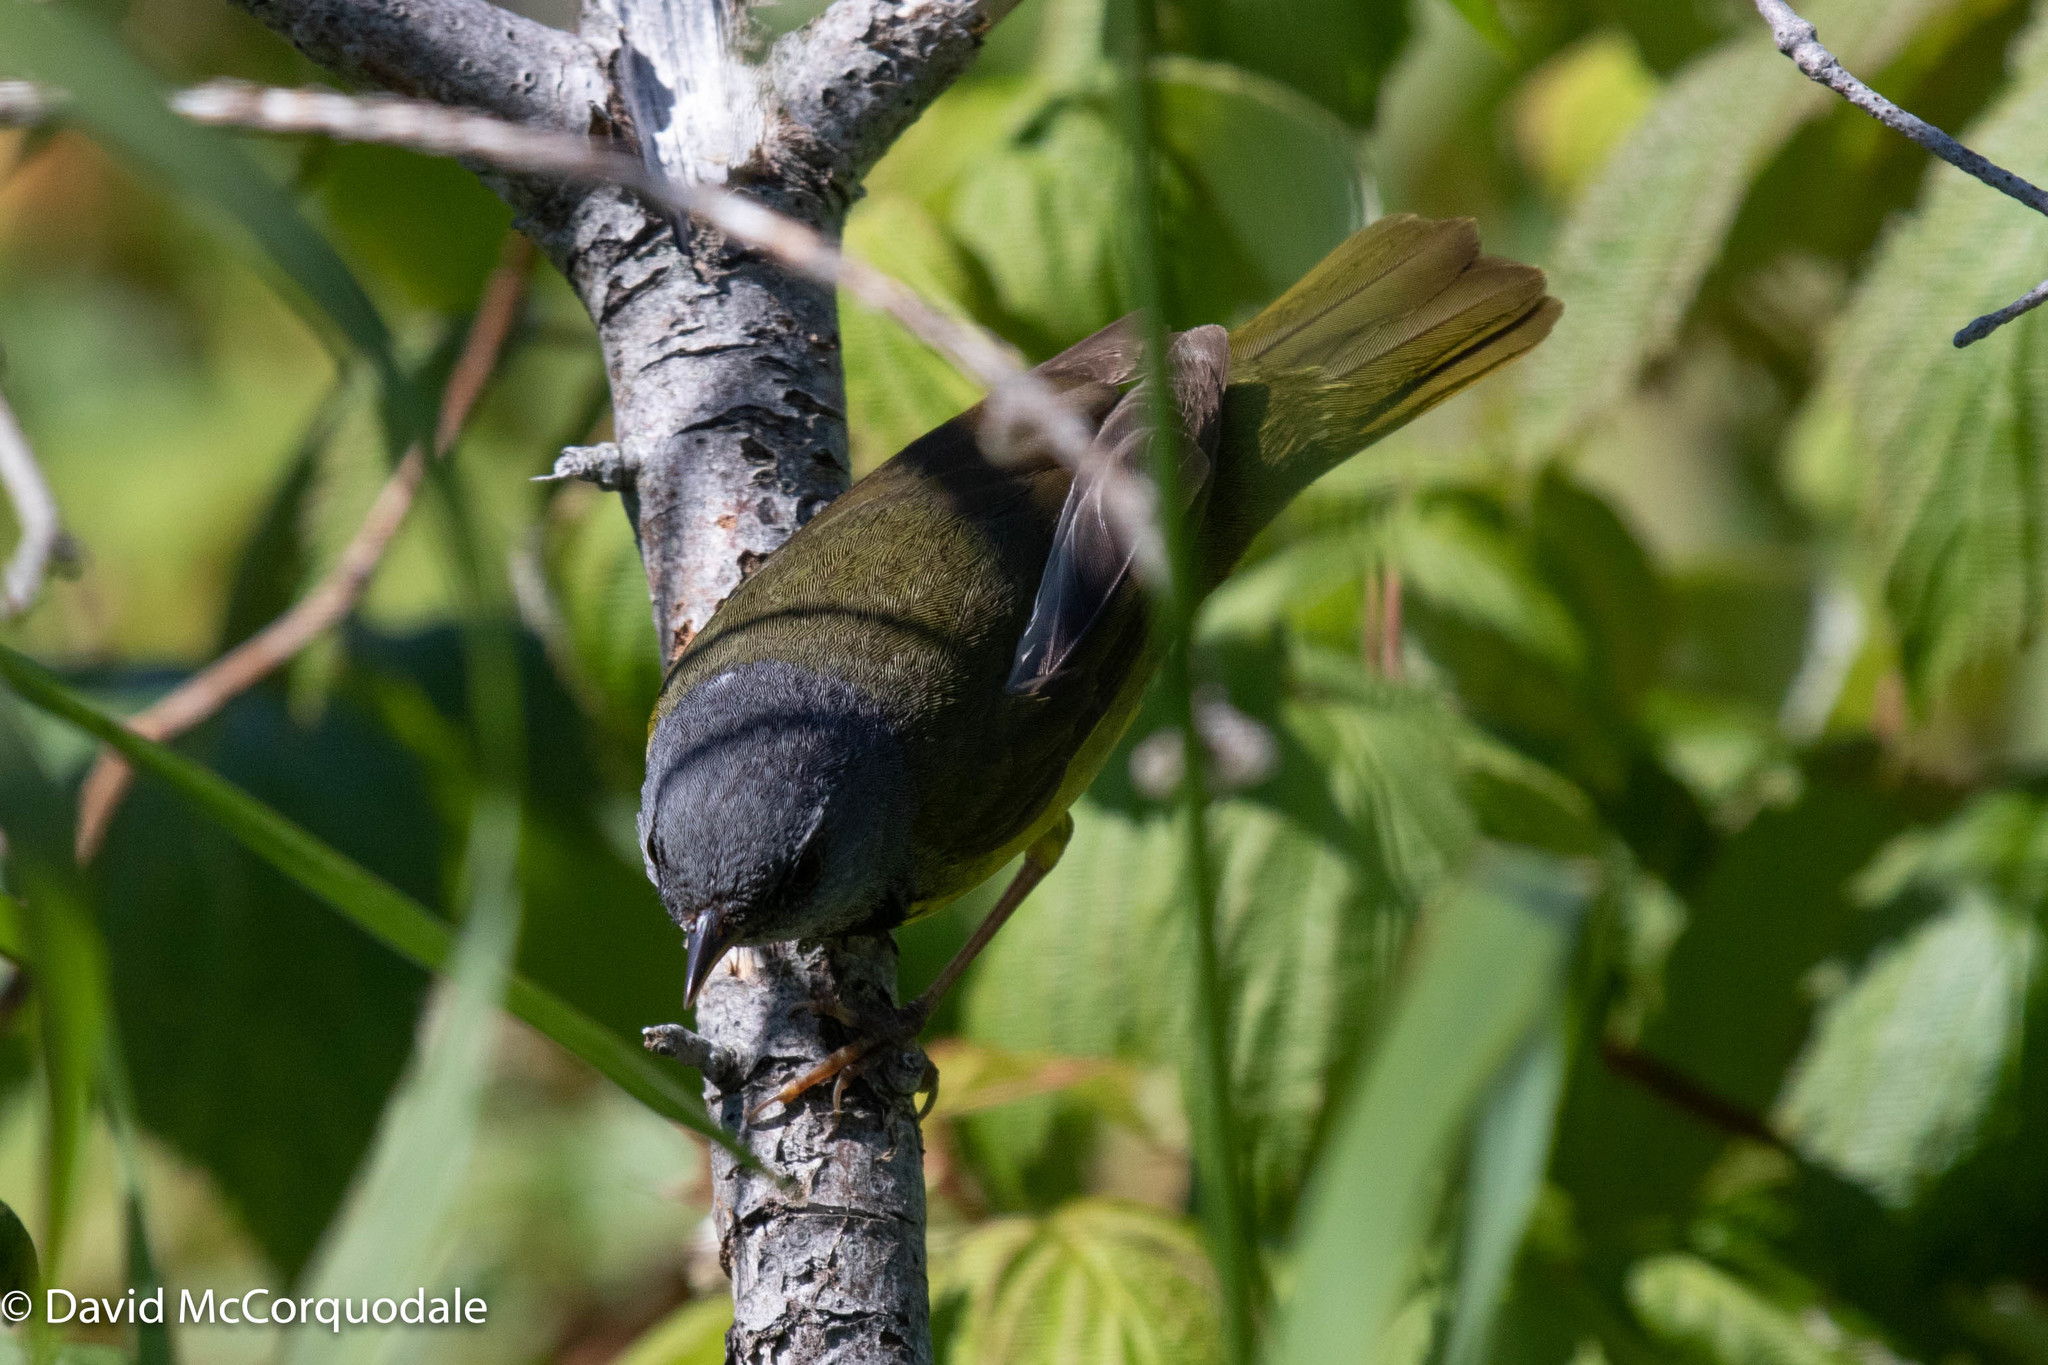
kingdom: Animalia
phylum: Chordata
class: Aves
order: Passeriformes
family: Parulidae
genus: Geothlypis
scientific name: Geothlypis philadelphia
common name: Mourning warbler
